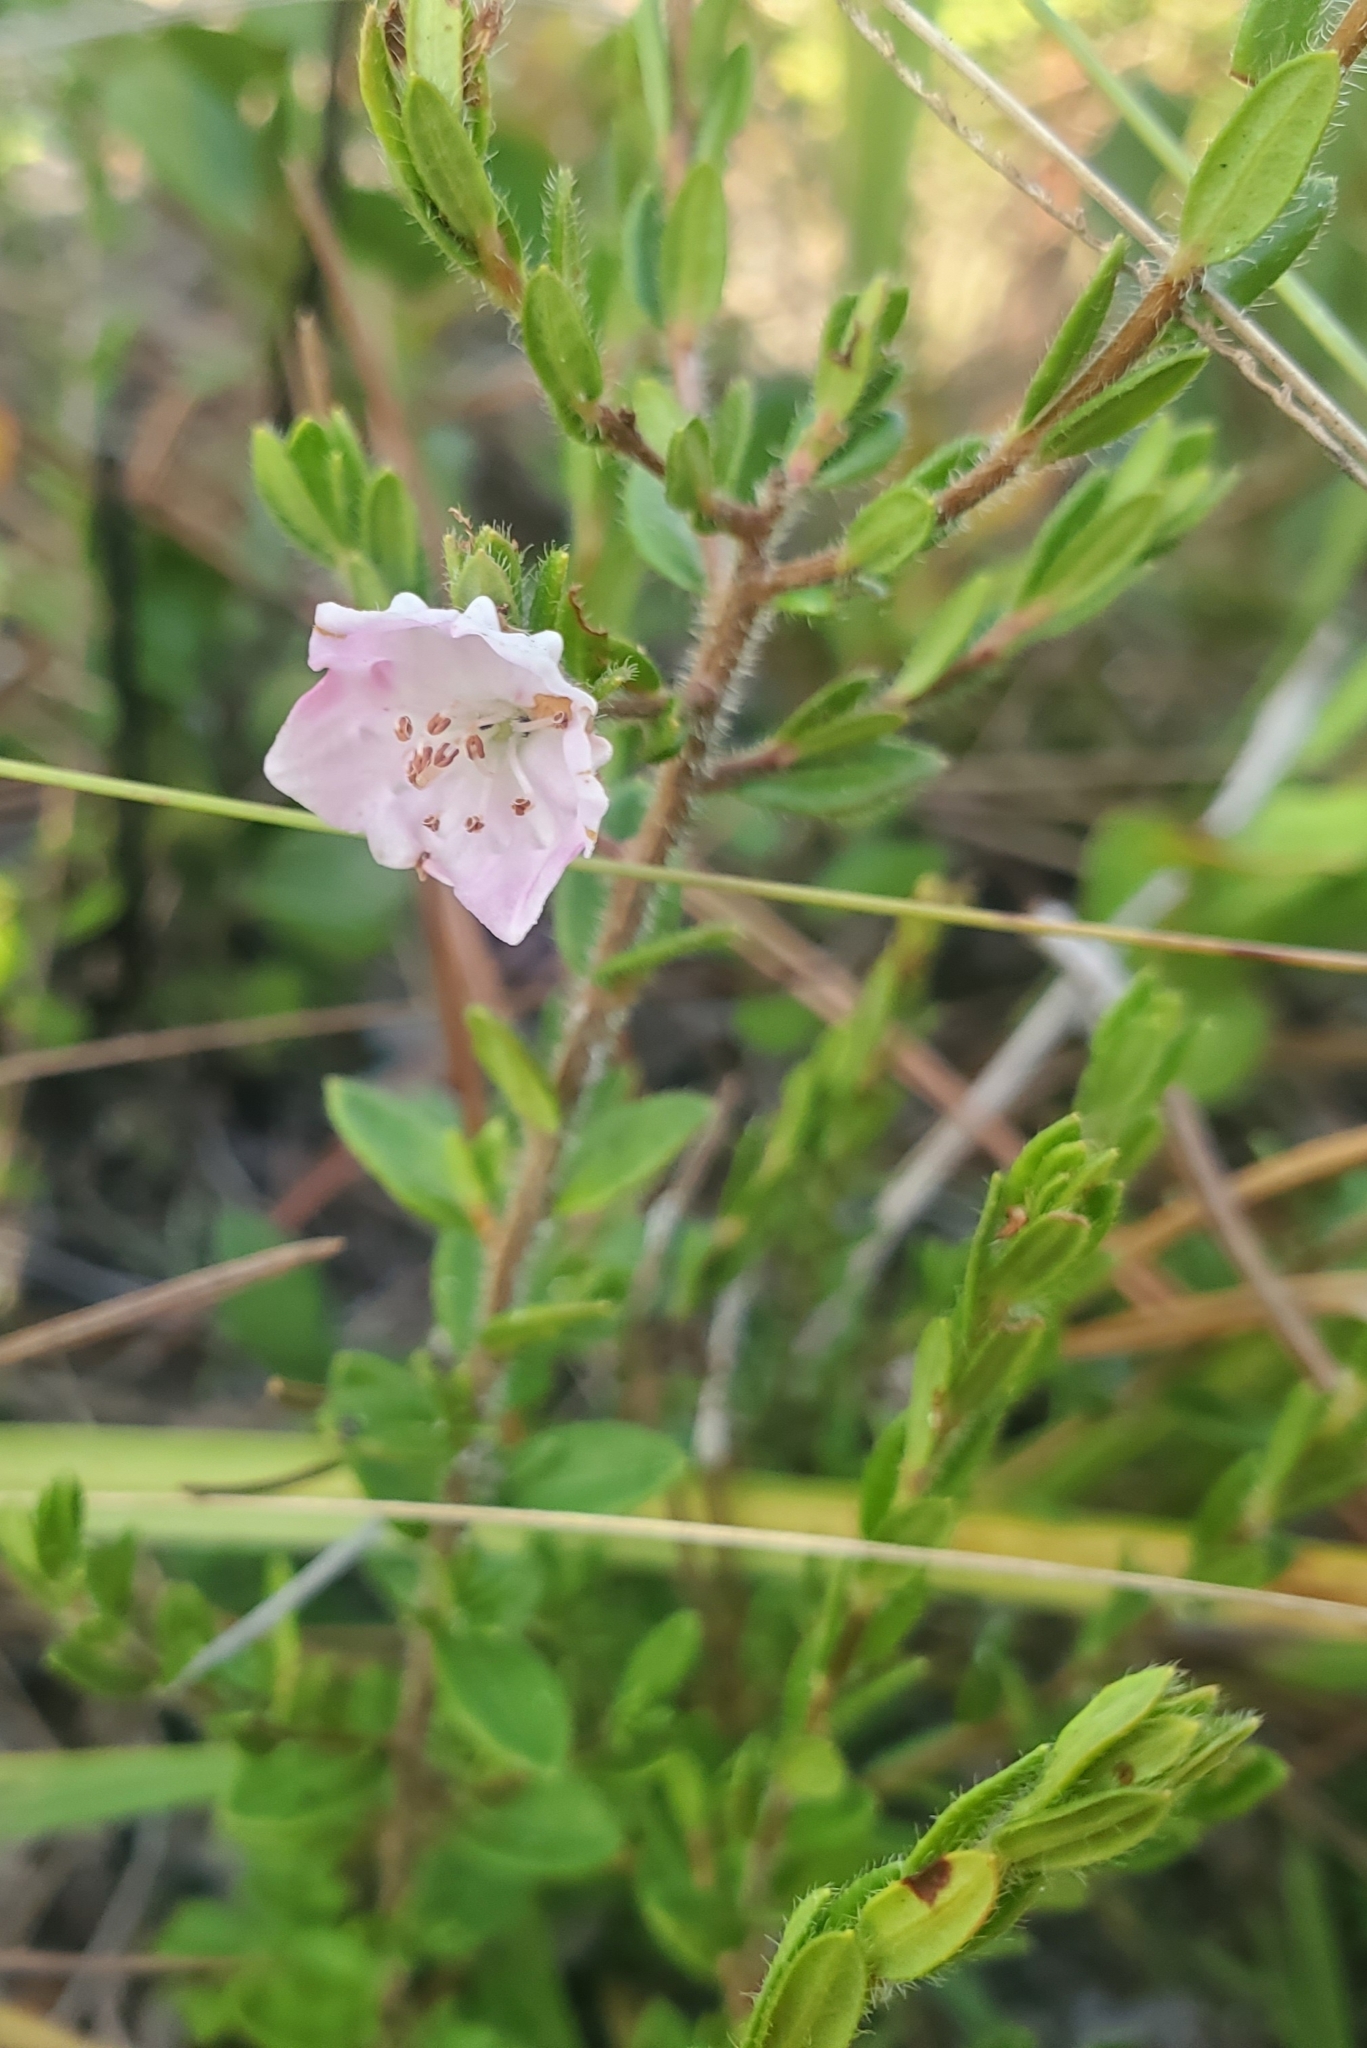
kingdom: Plantae
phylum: Tracheophyta
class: Magnoliopsida
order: Ericales
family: Ericaceae
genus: Kalmia
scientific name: Kalmia hirsuta
